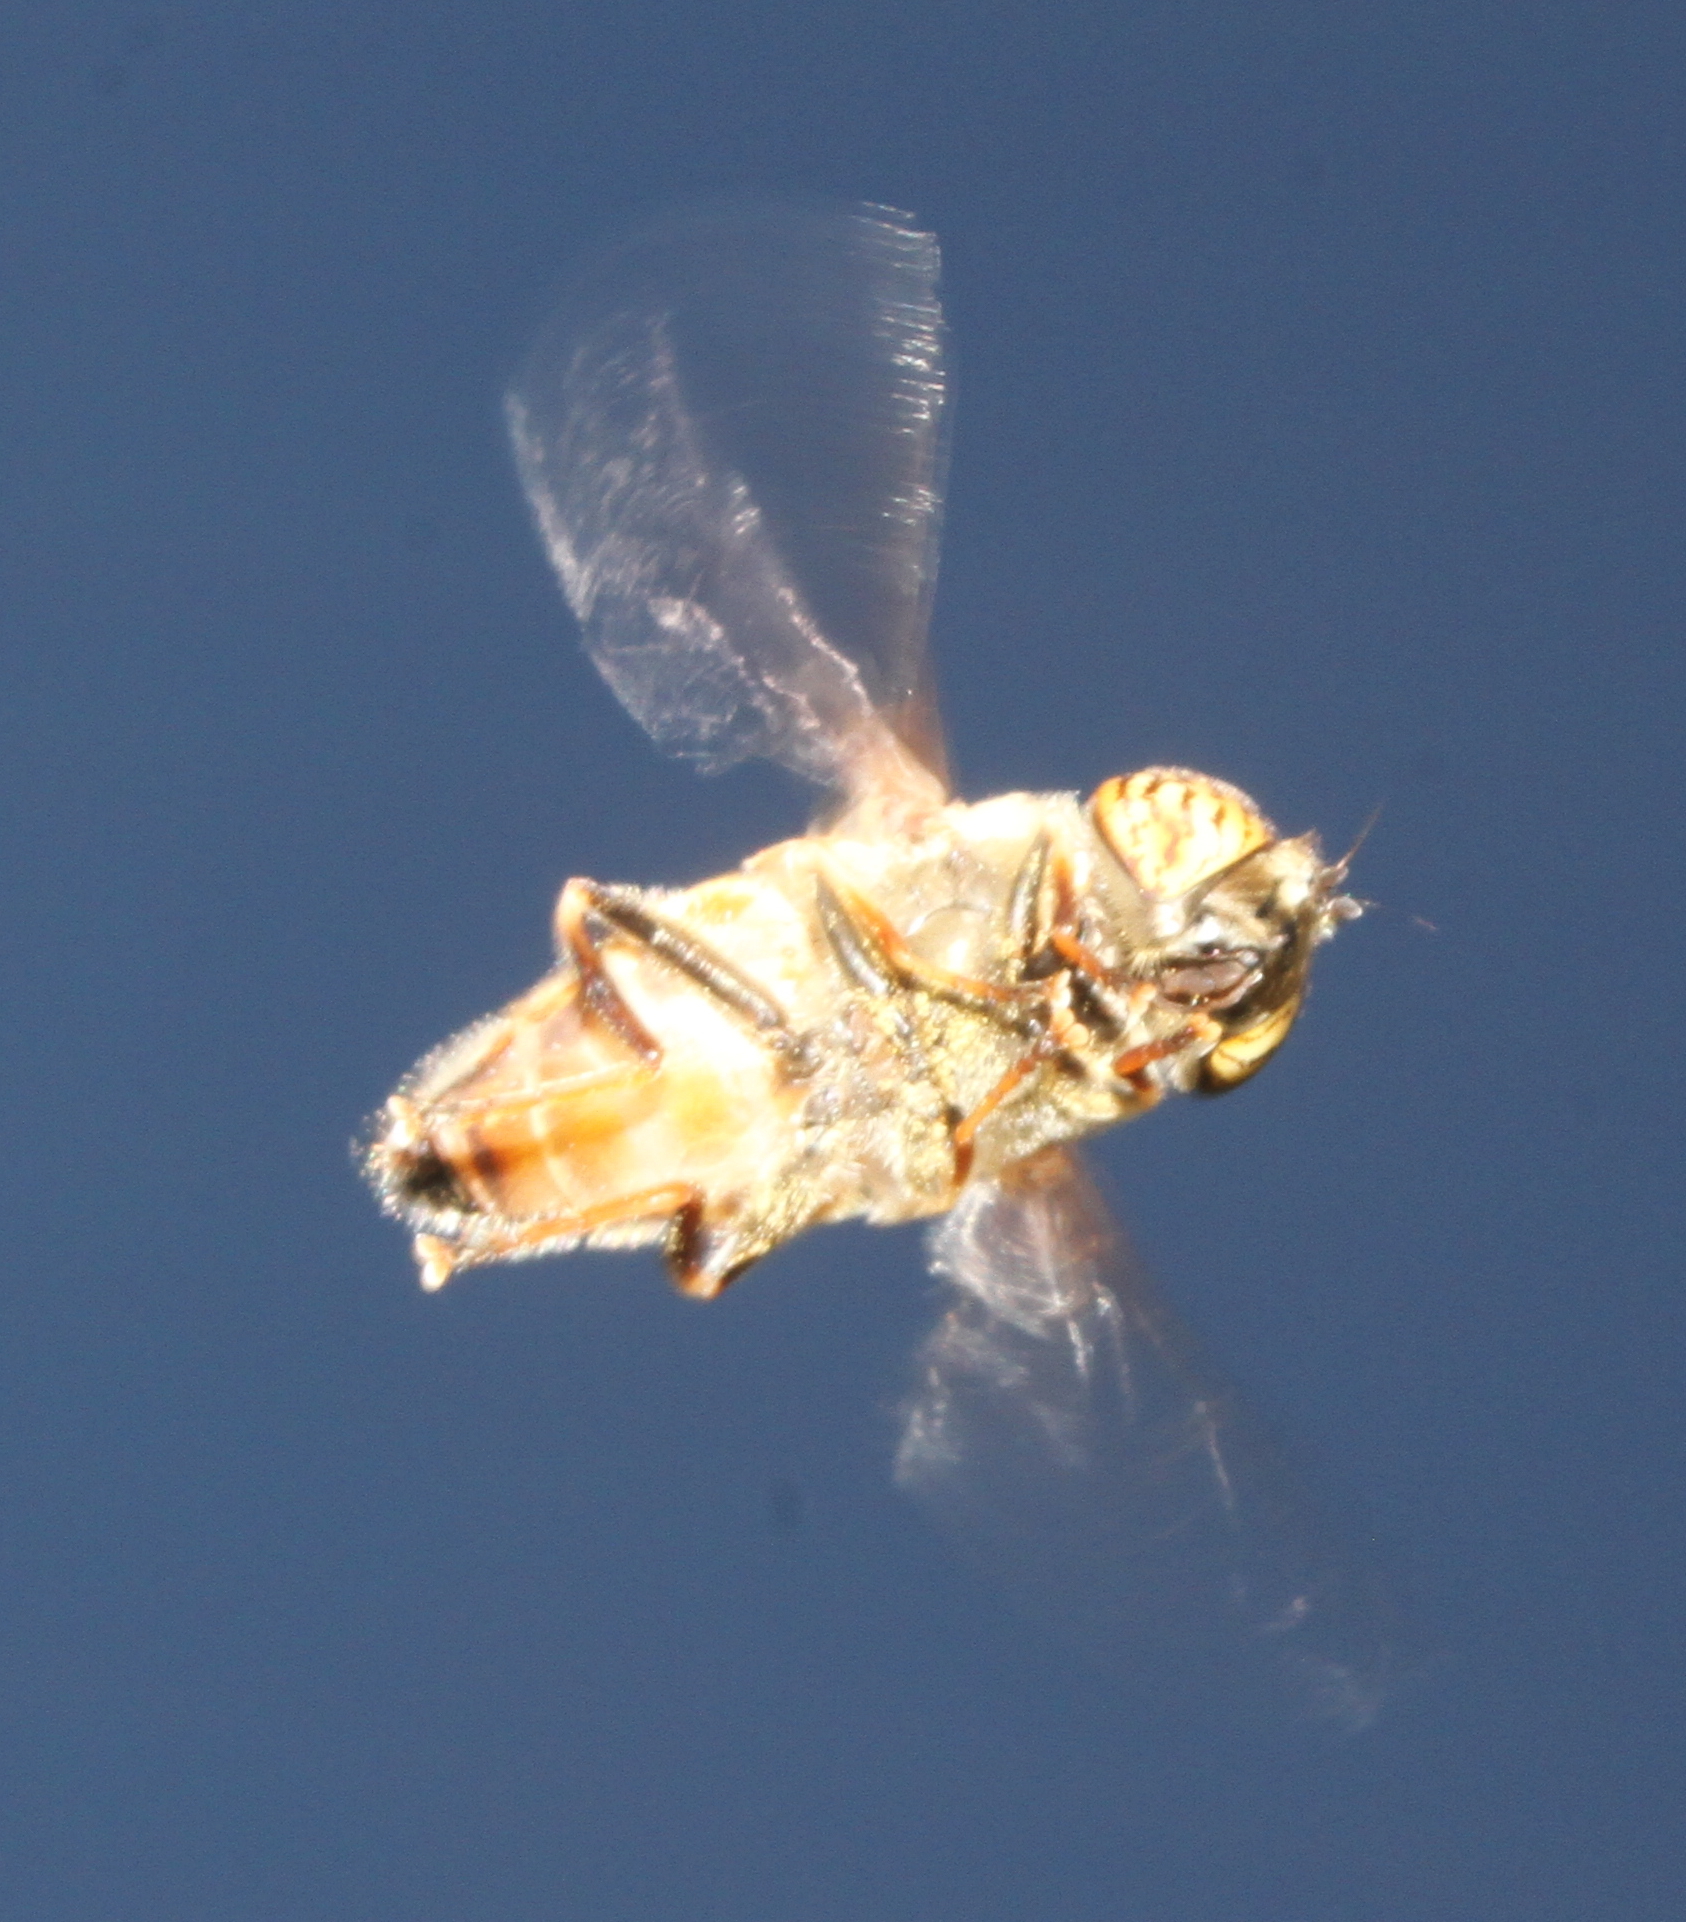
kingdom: Animalia
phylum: Arthropoda
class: Insecta
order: Diptera
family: Syrphidae
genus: Eristalinus
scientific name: Eristalinus taeniops
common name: Syrphid fly
